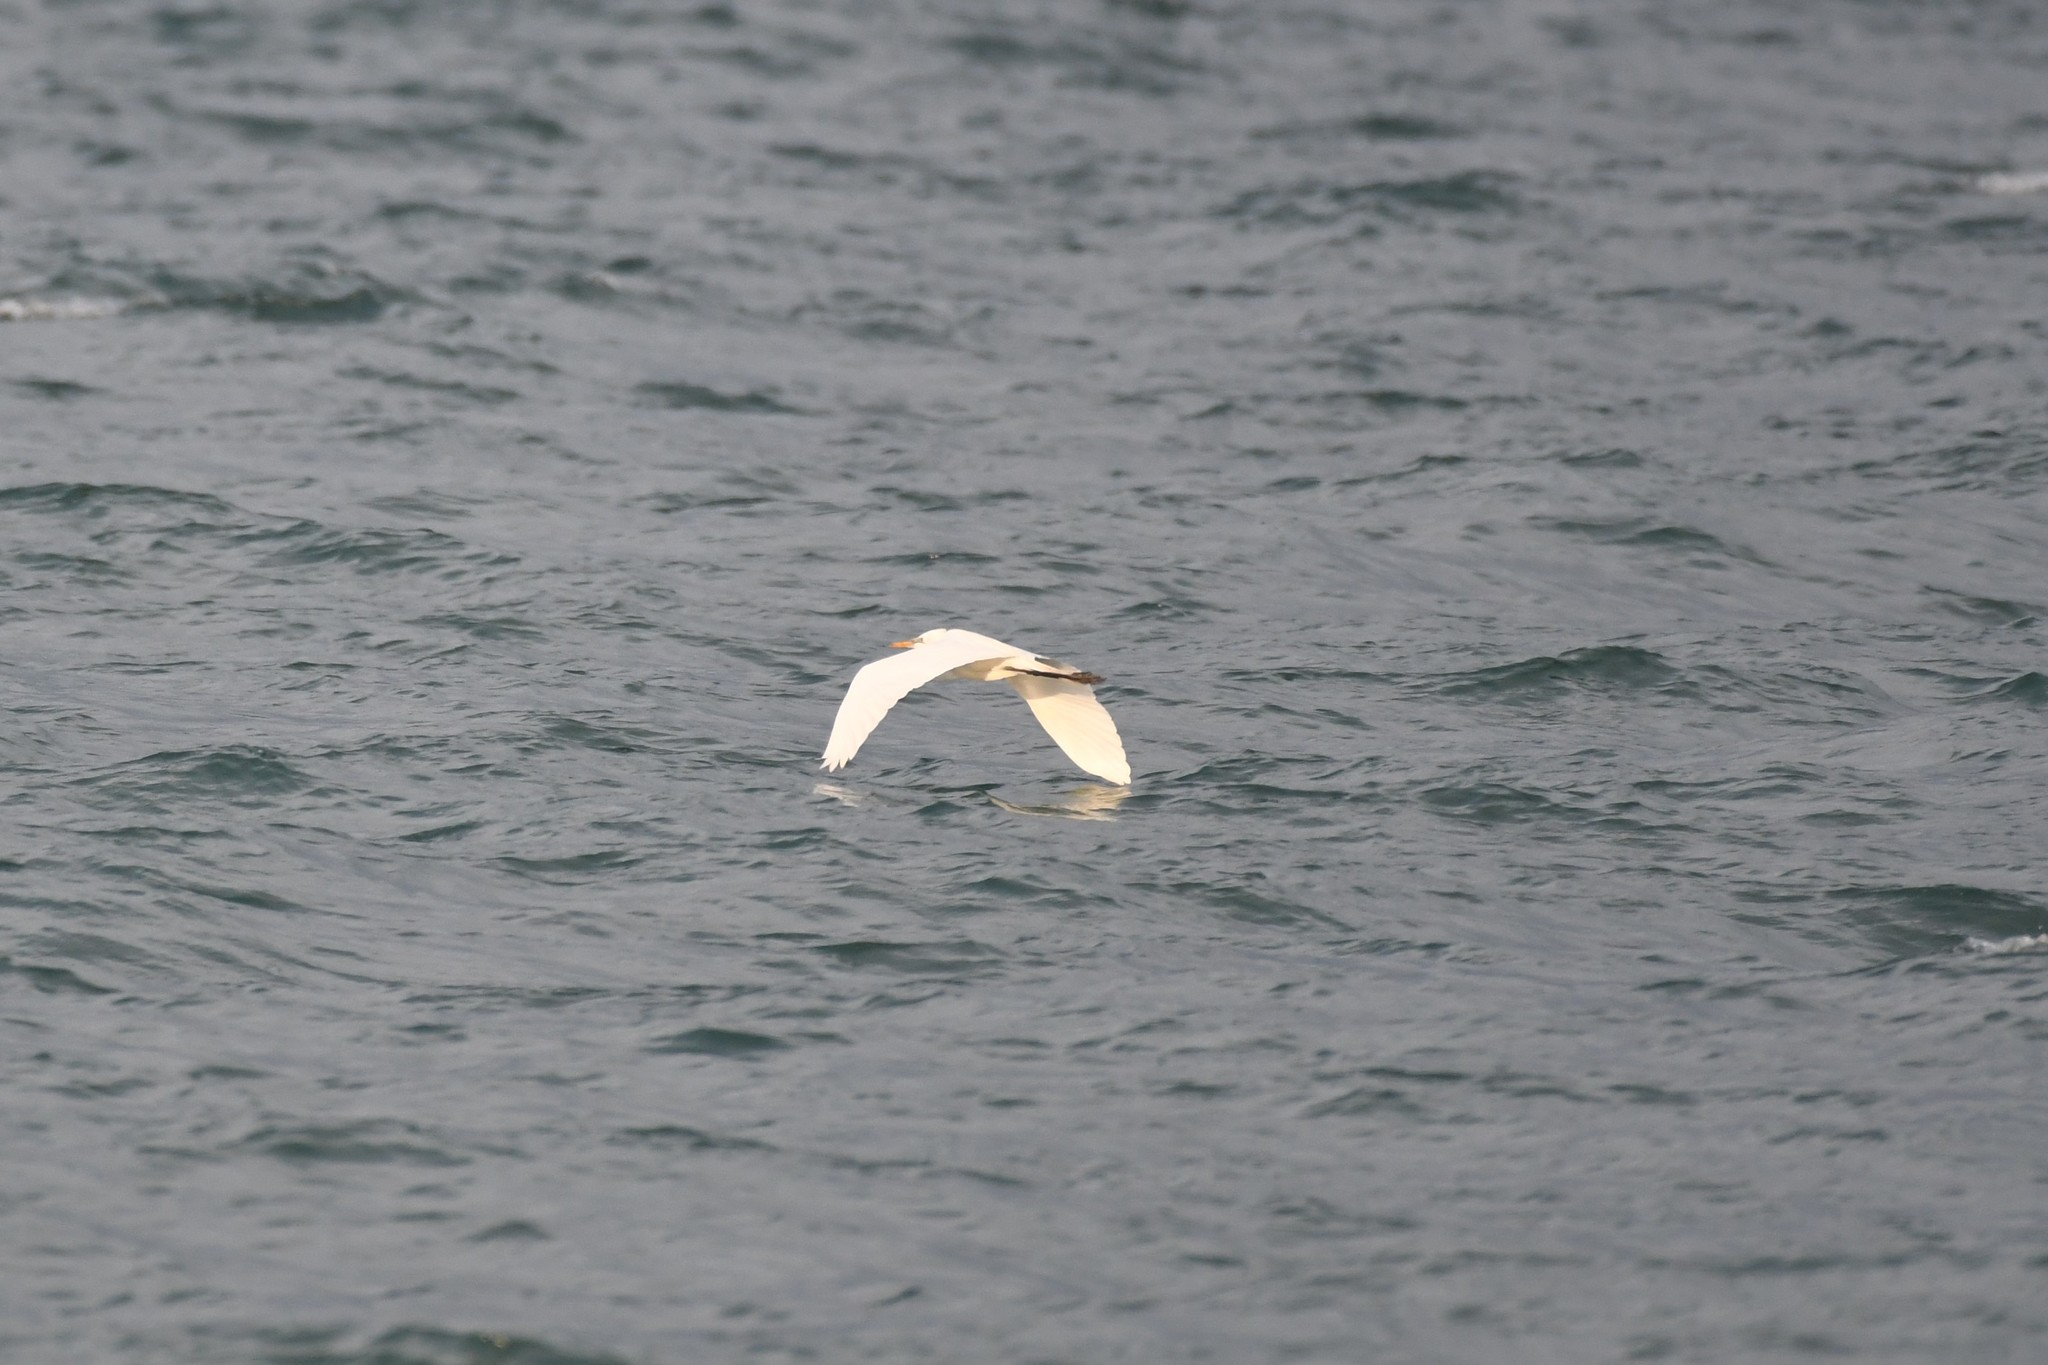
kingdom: Animalia
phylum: Chordata
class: Aves
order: Pelecaniformes
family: Ardeidae
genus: Ardea
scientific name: Ardea alba
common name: Great egret
